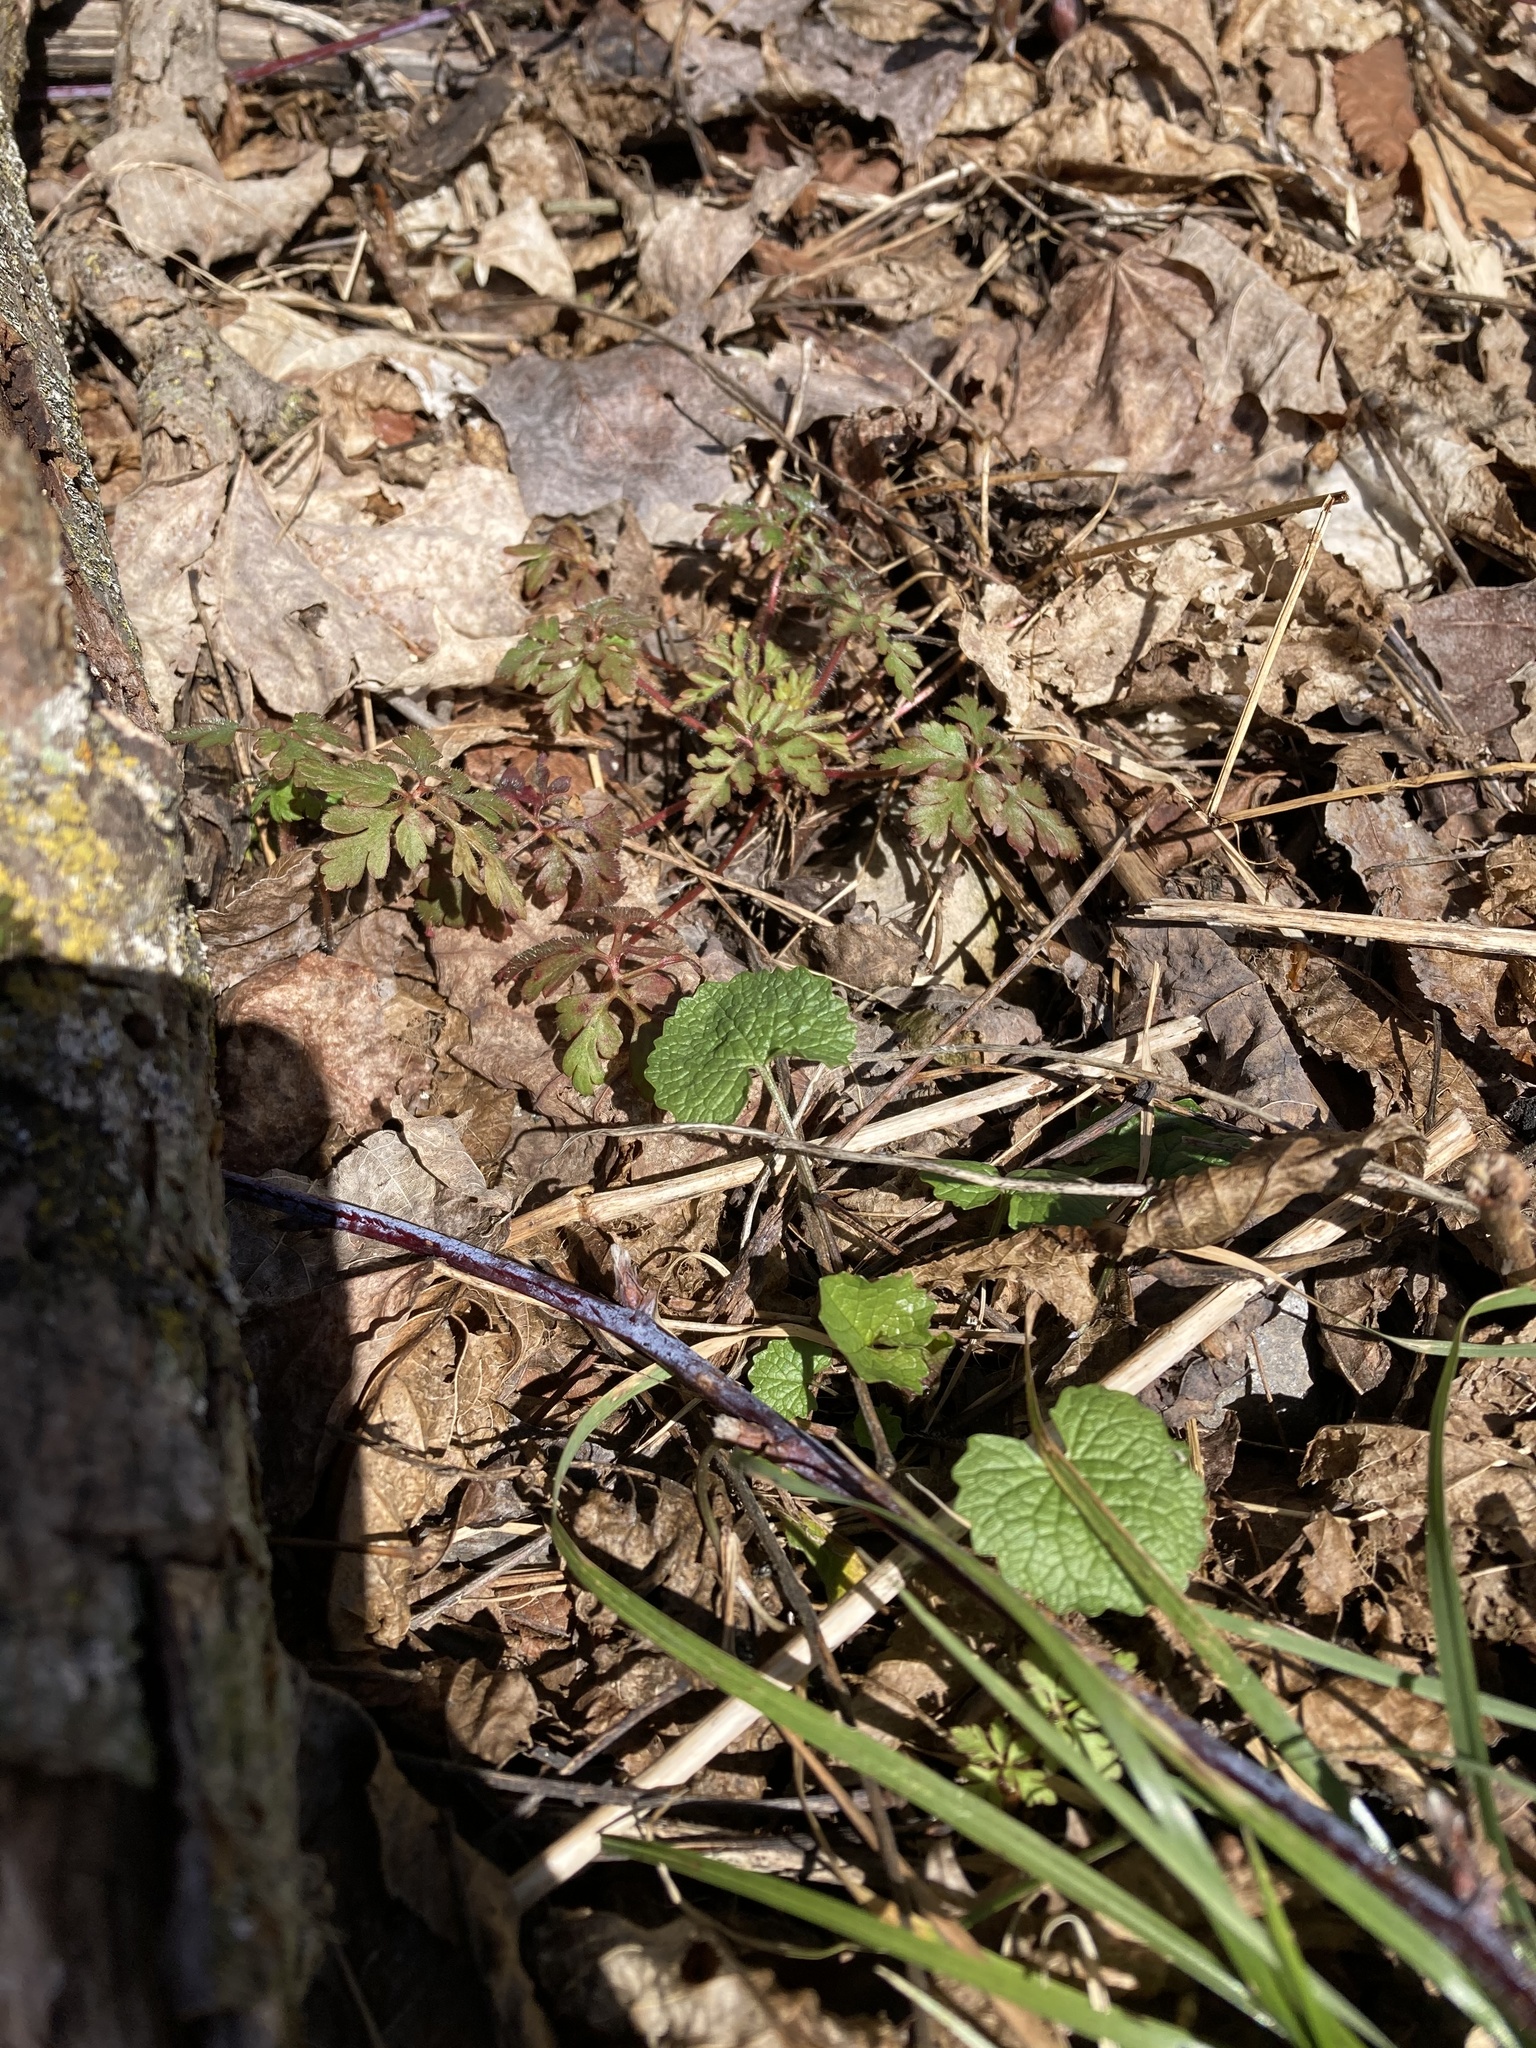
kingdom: Plantae
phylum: Tracheophyta
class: Magnoliopsida
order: Geraniales
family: Geraniaceae
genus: Geranium
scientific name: Geranium robertianum
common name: Herb-robert
